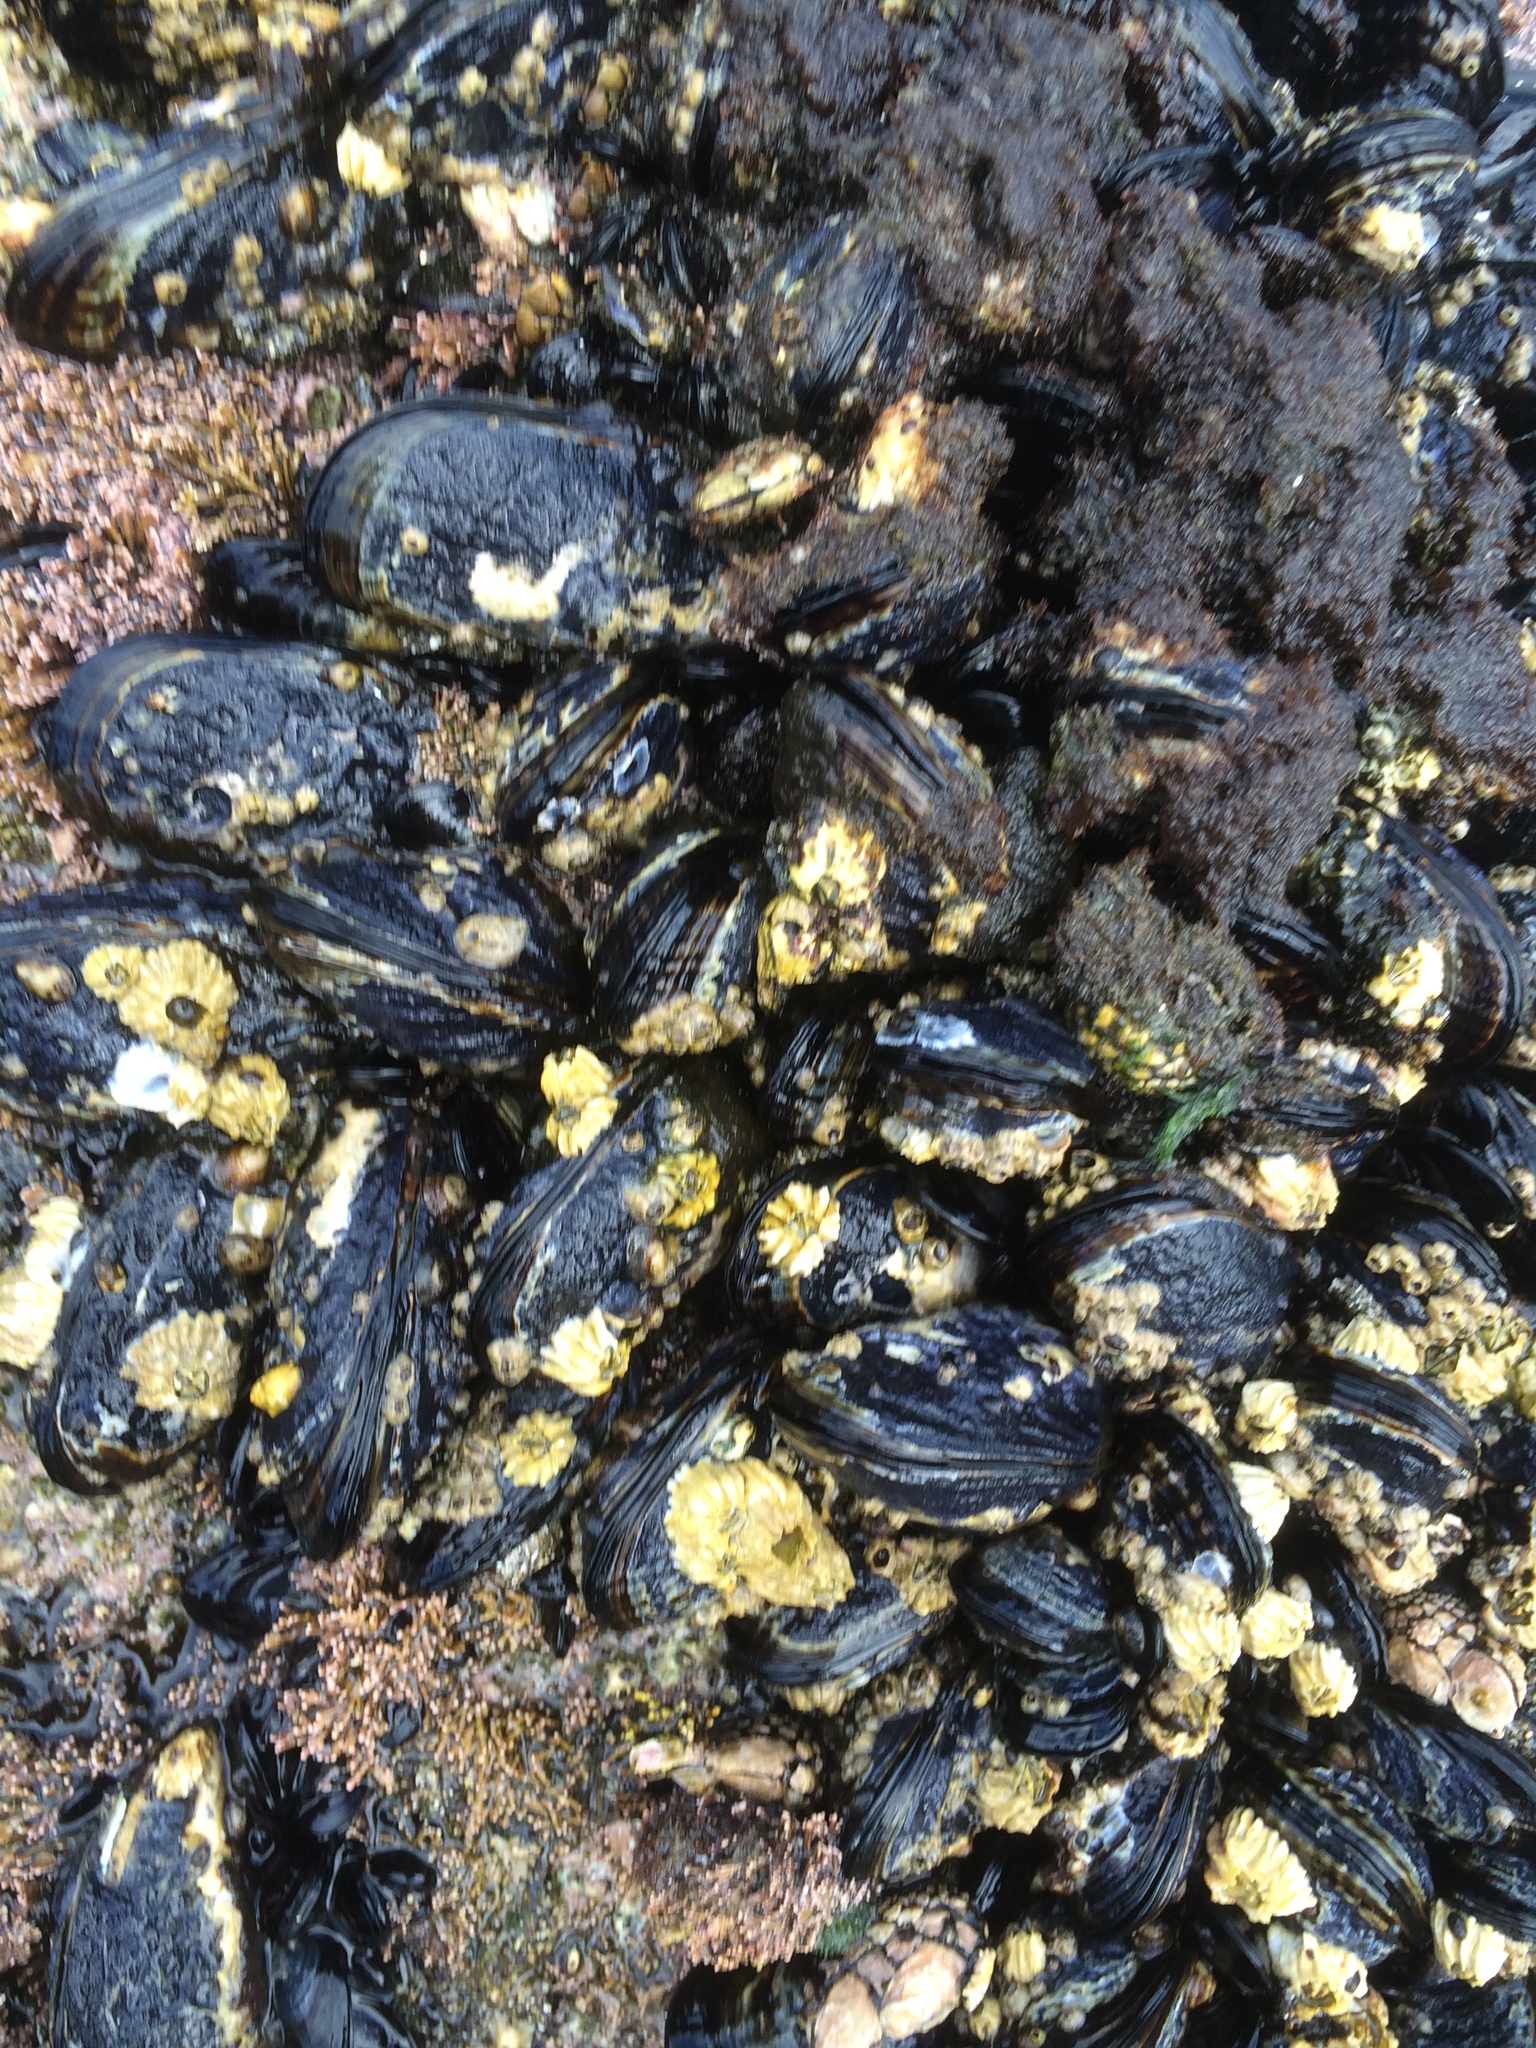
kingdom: Animalia
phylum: Mollusca
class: Bivalvia
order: Mytilida
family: Mytilidae
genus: Mytilus
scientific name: Mytilus californianus
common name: California mussel
